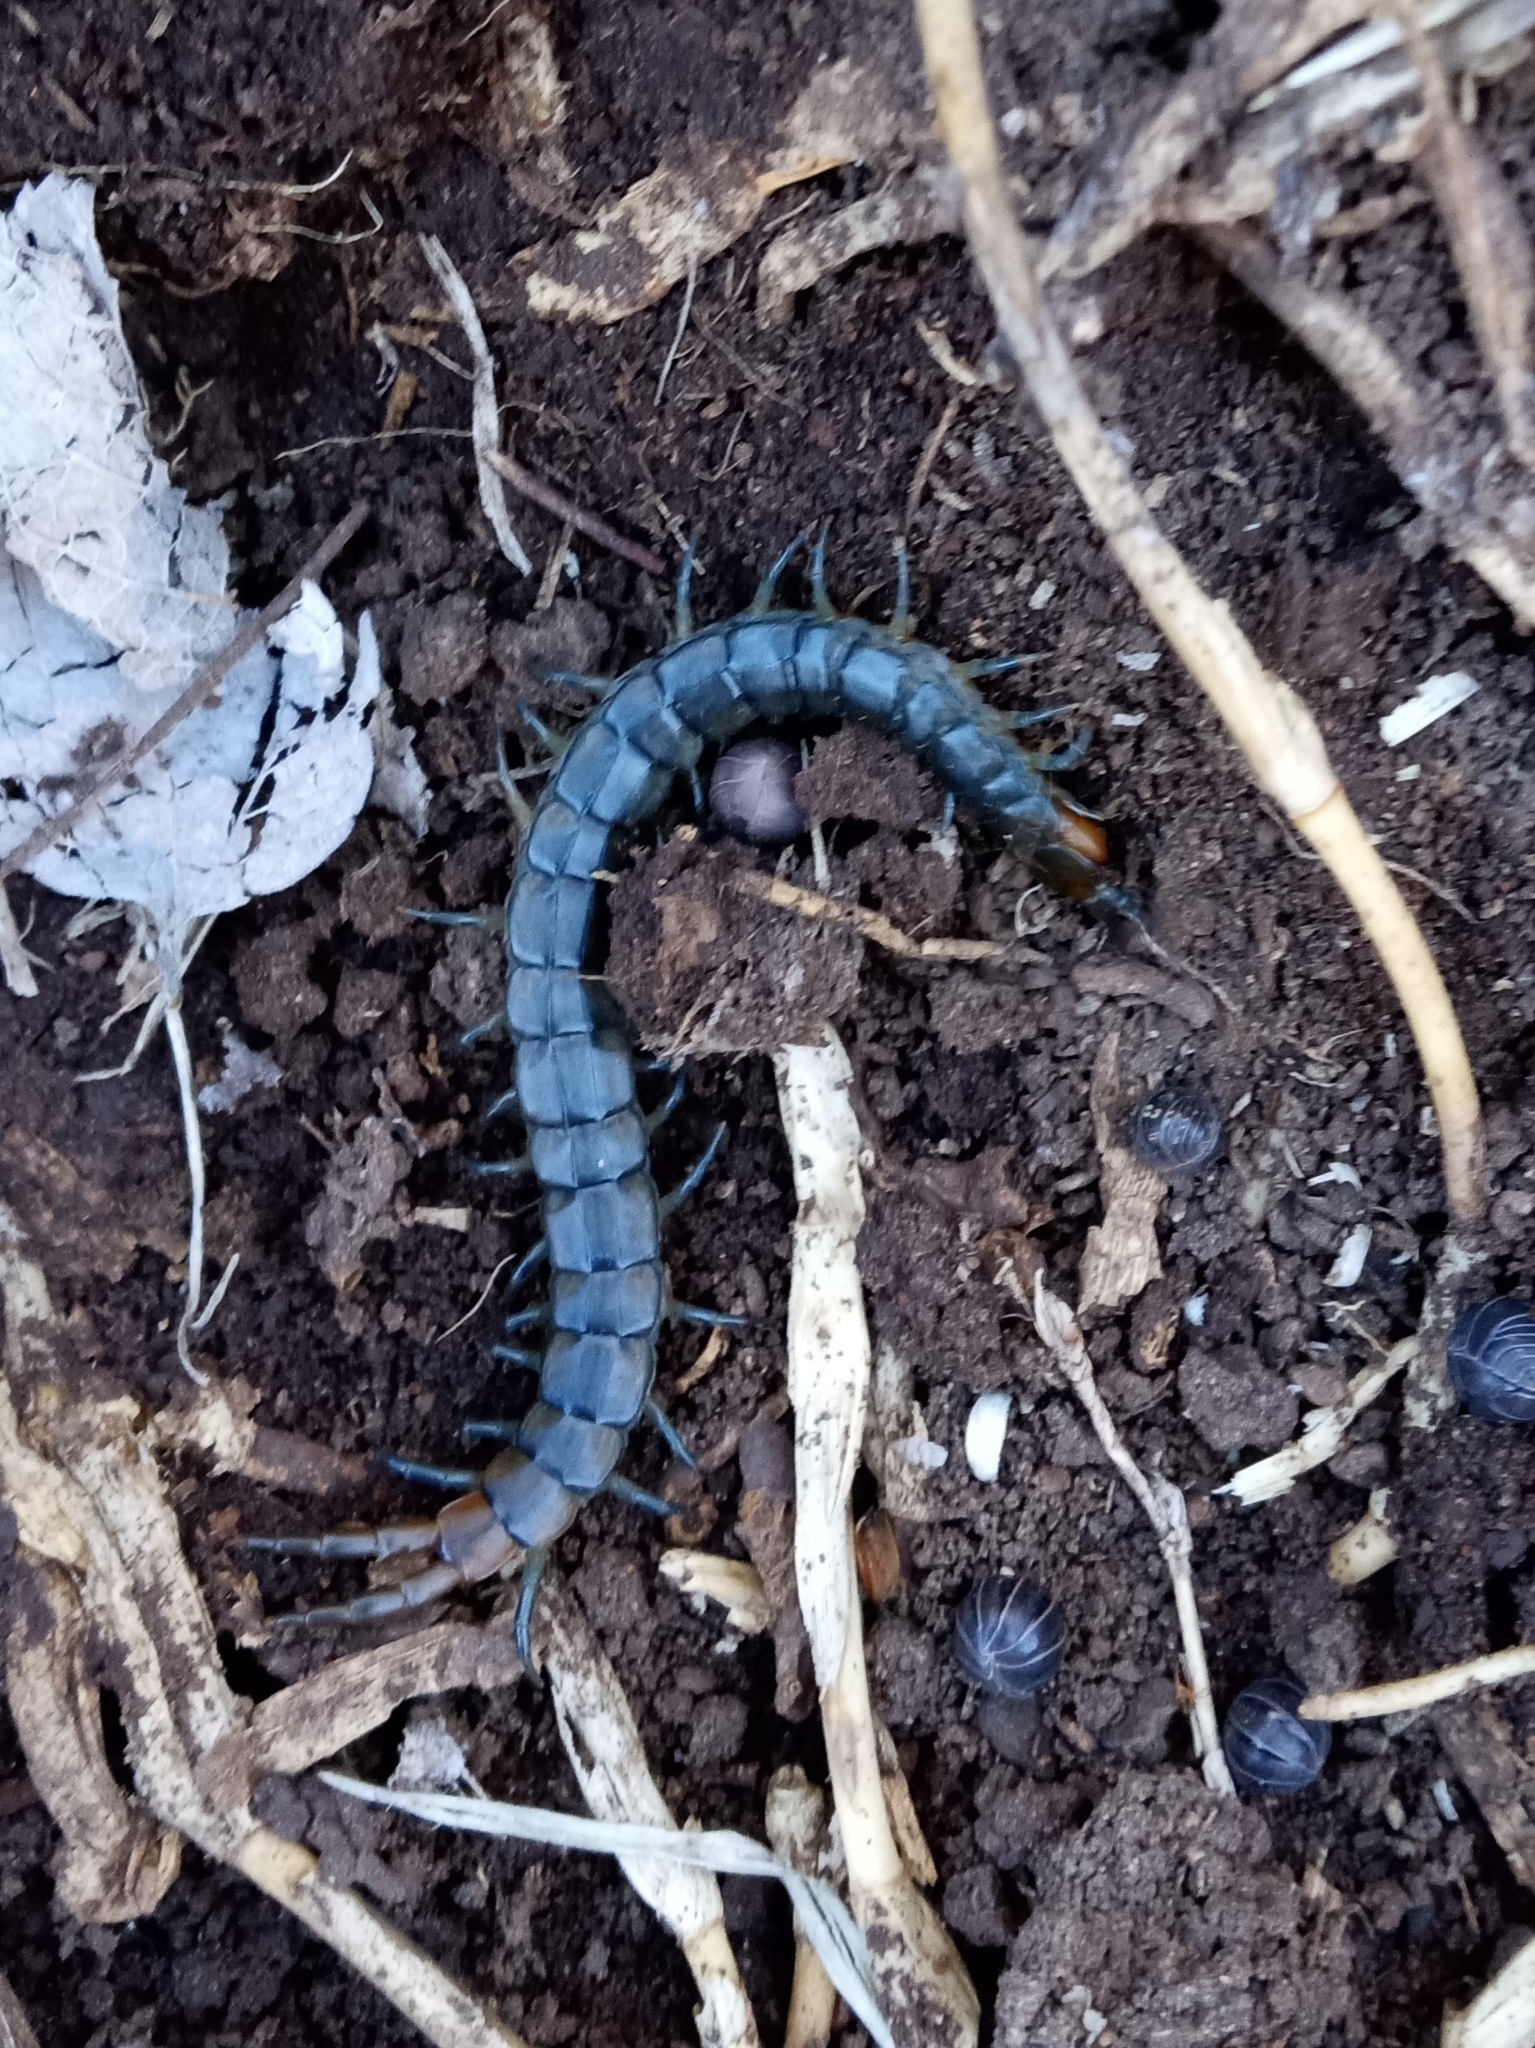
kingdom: Animalia
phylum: Arthropoda
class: Chilopoda
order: Scolopendromorpha
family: Scolopendridae
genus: Scolopendra
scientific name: Scolopendra viridis
